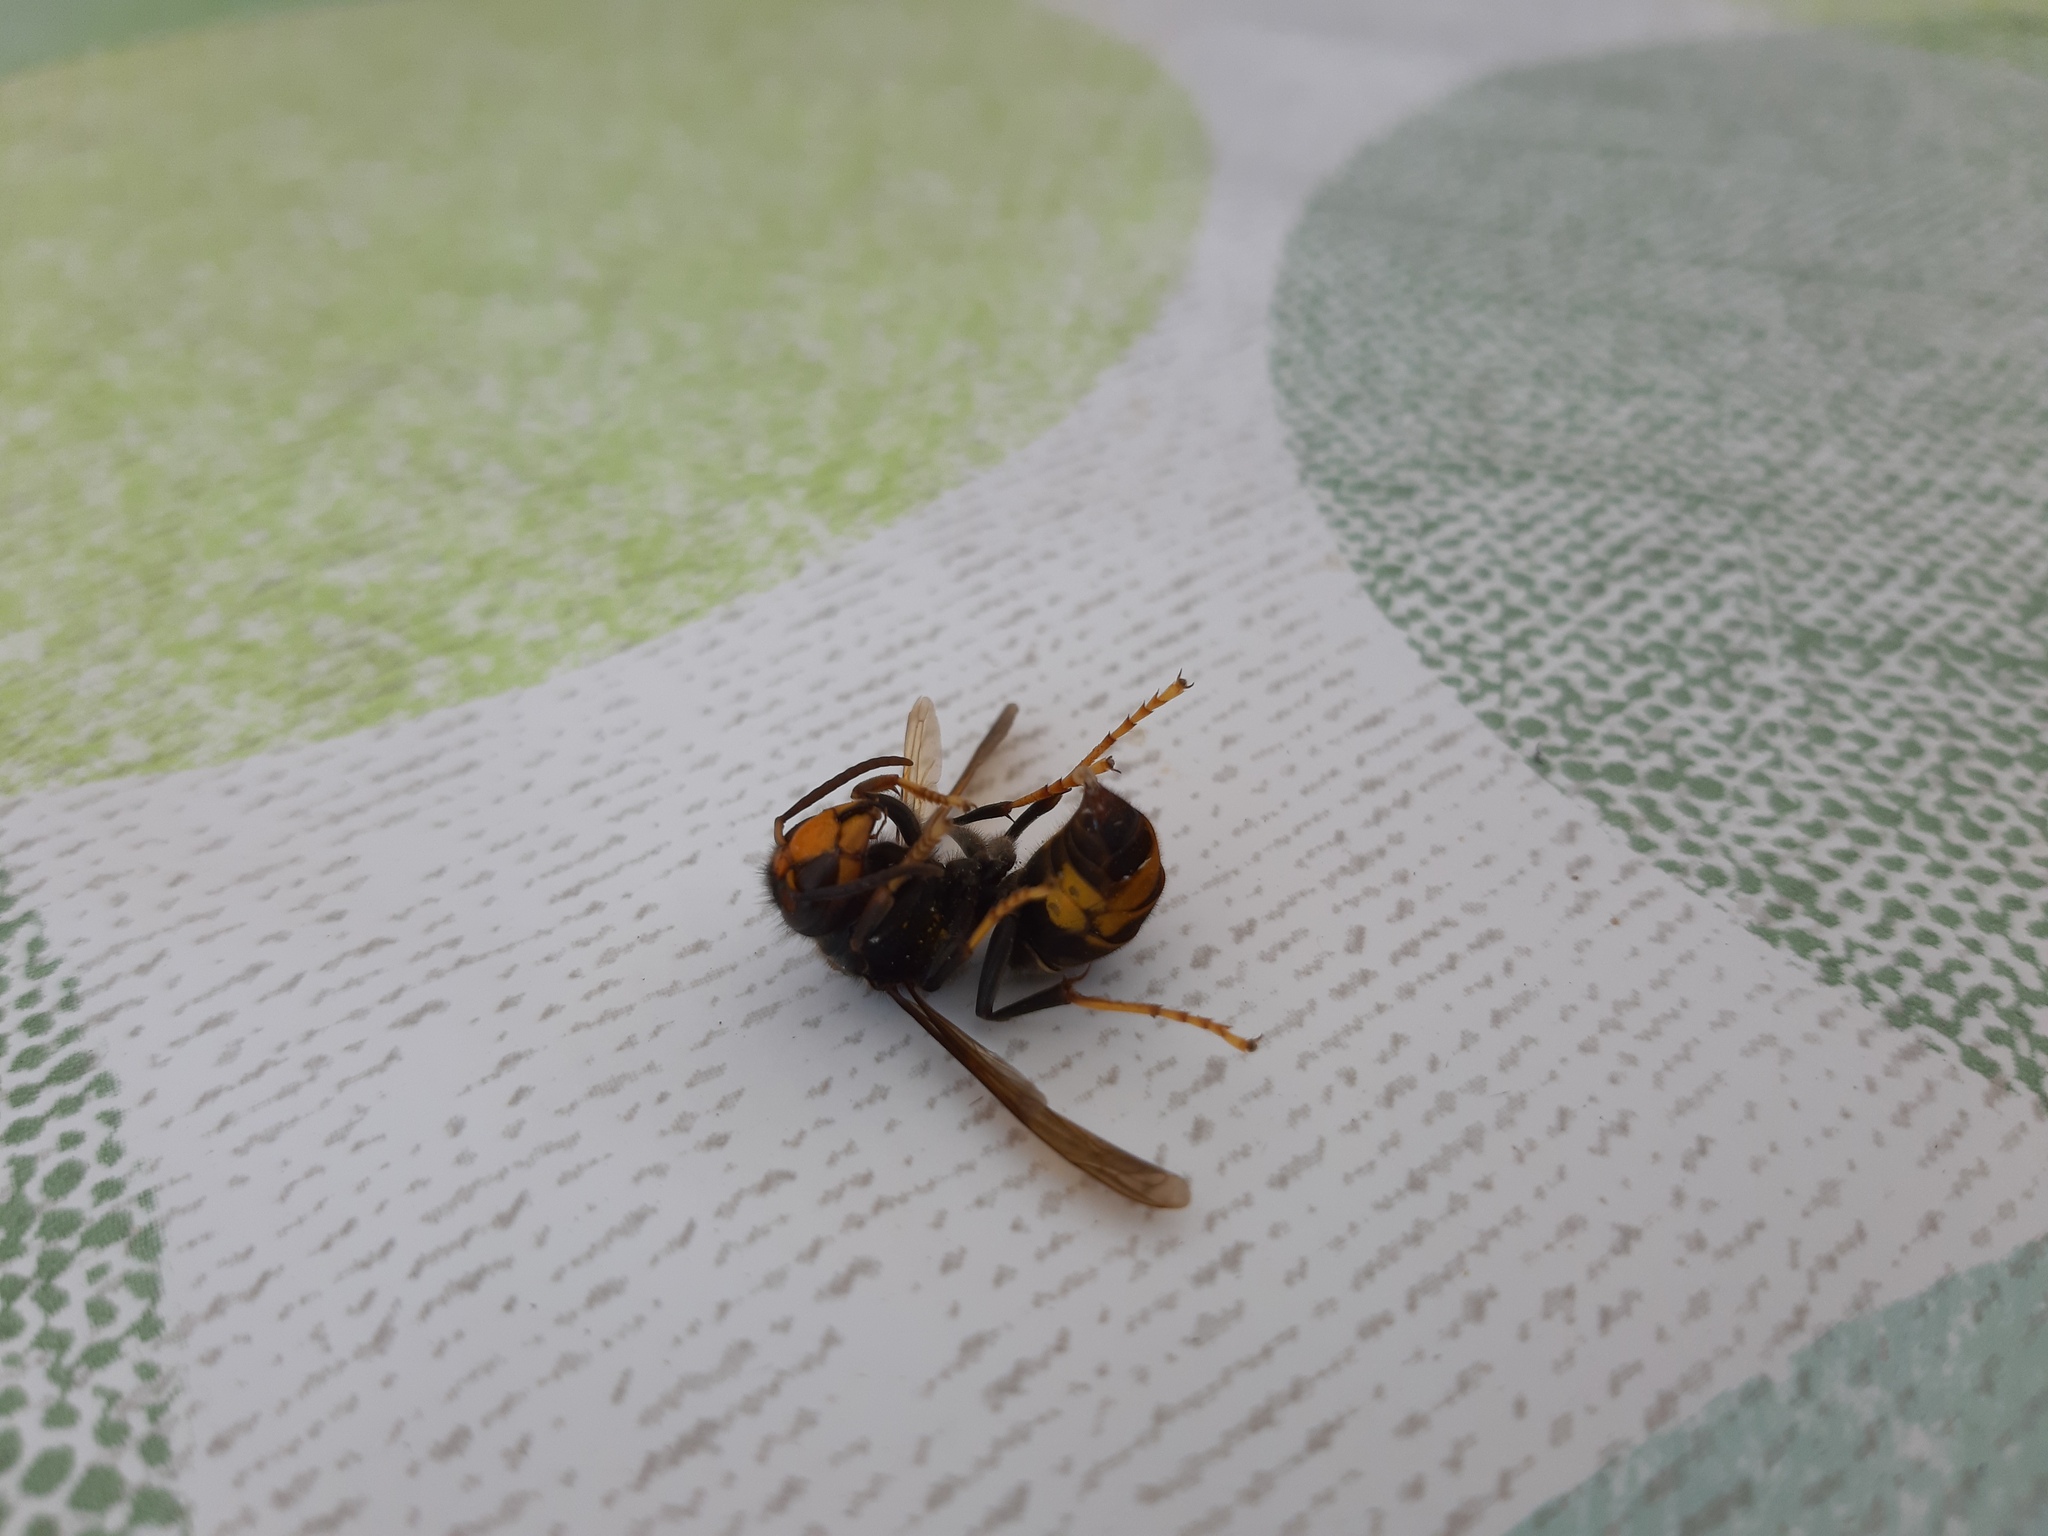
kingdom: Animalia
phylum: Arthropoda
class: Insecta
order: Hymenoptera
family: Vespidae
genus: Vespa
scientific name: Vespa velutina
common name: Asian hornet
